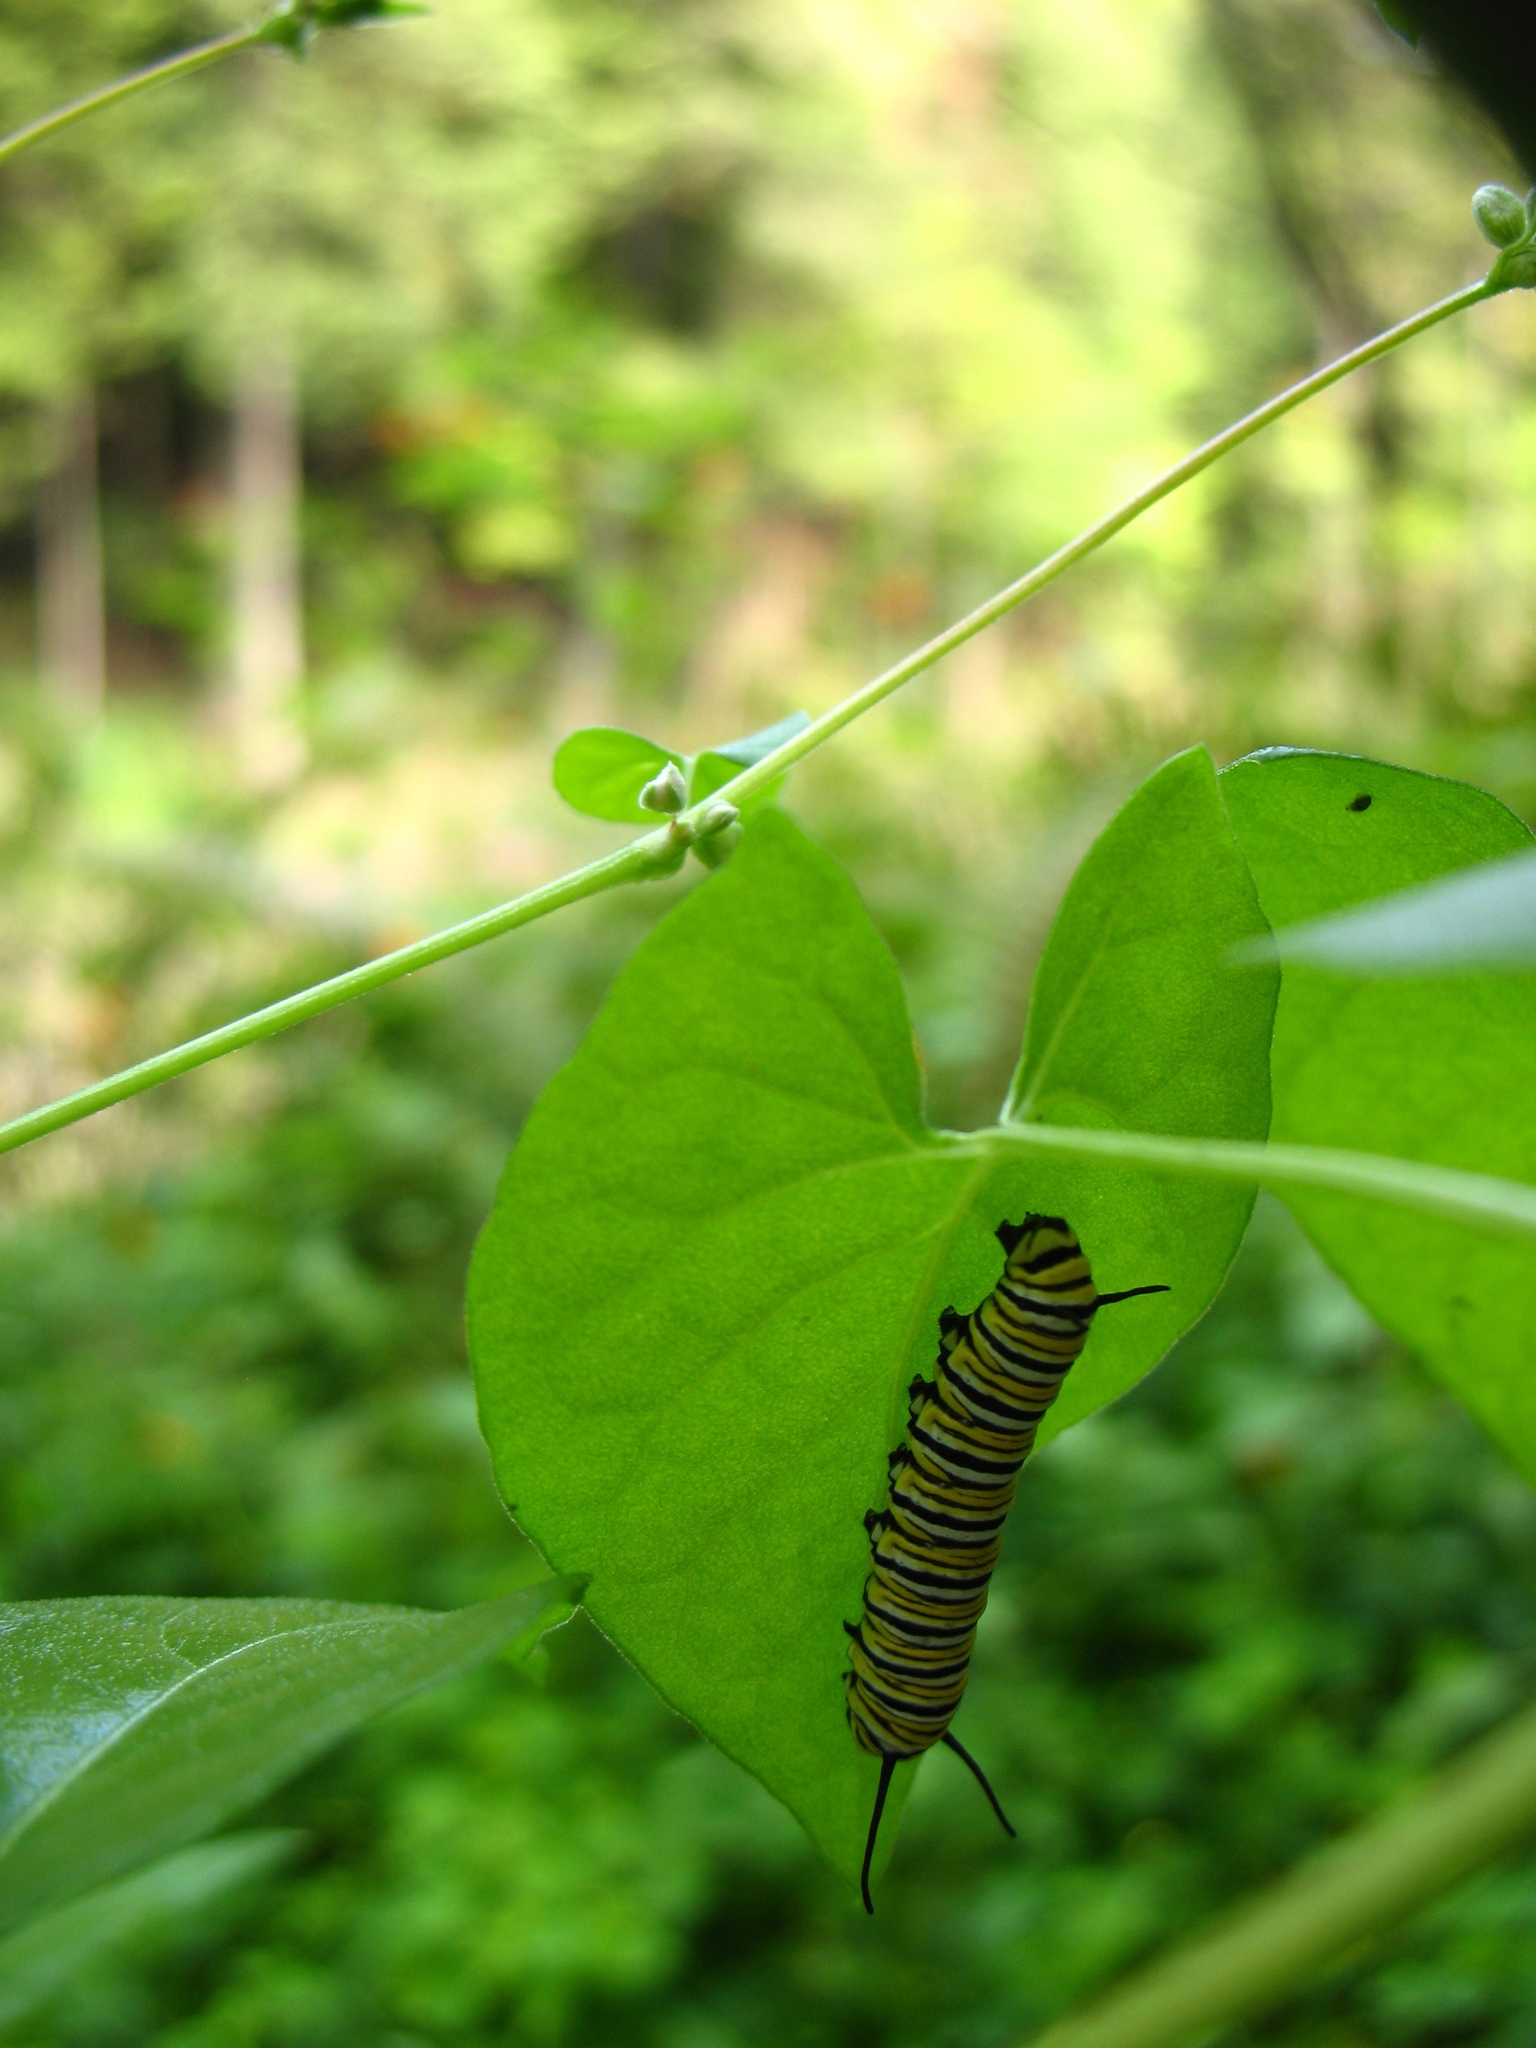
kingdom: Animalia
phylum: Arthropoda
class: Insecta
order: Lepidoptera
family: Nymphalidae
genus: Danaus
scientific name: Danaus plexippus
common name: Monarch
